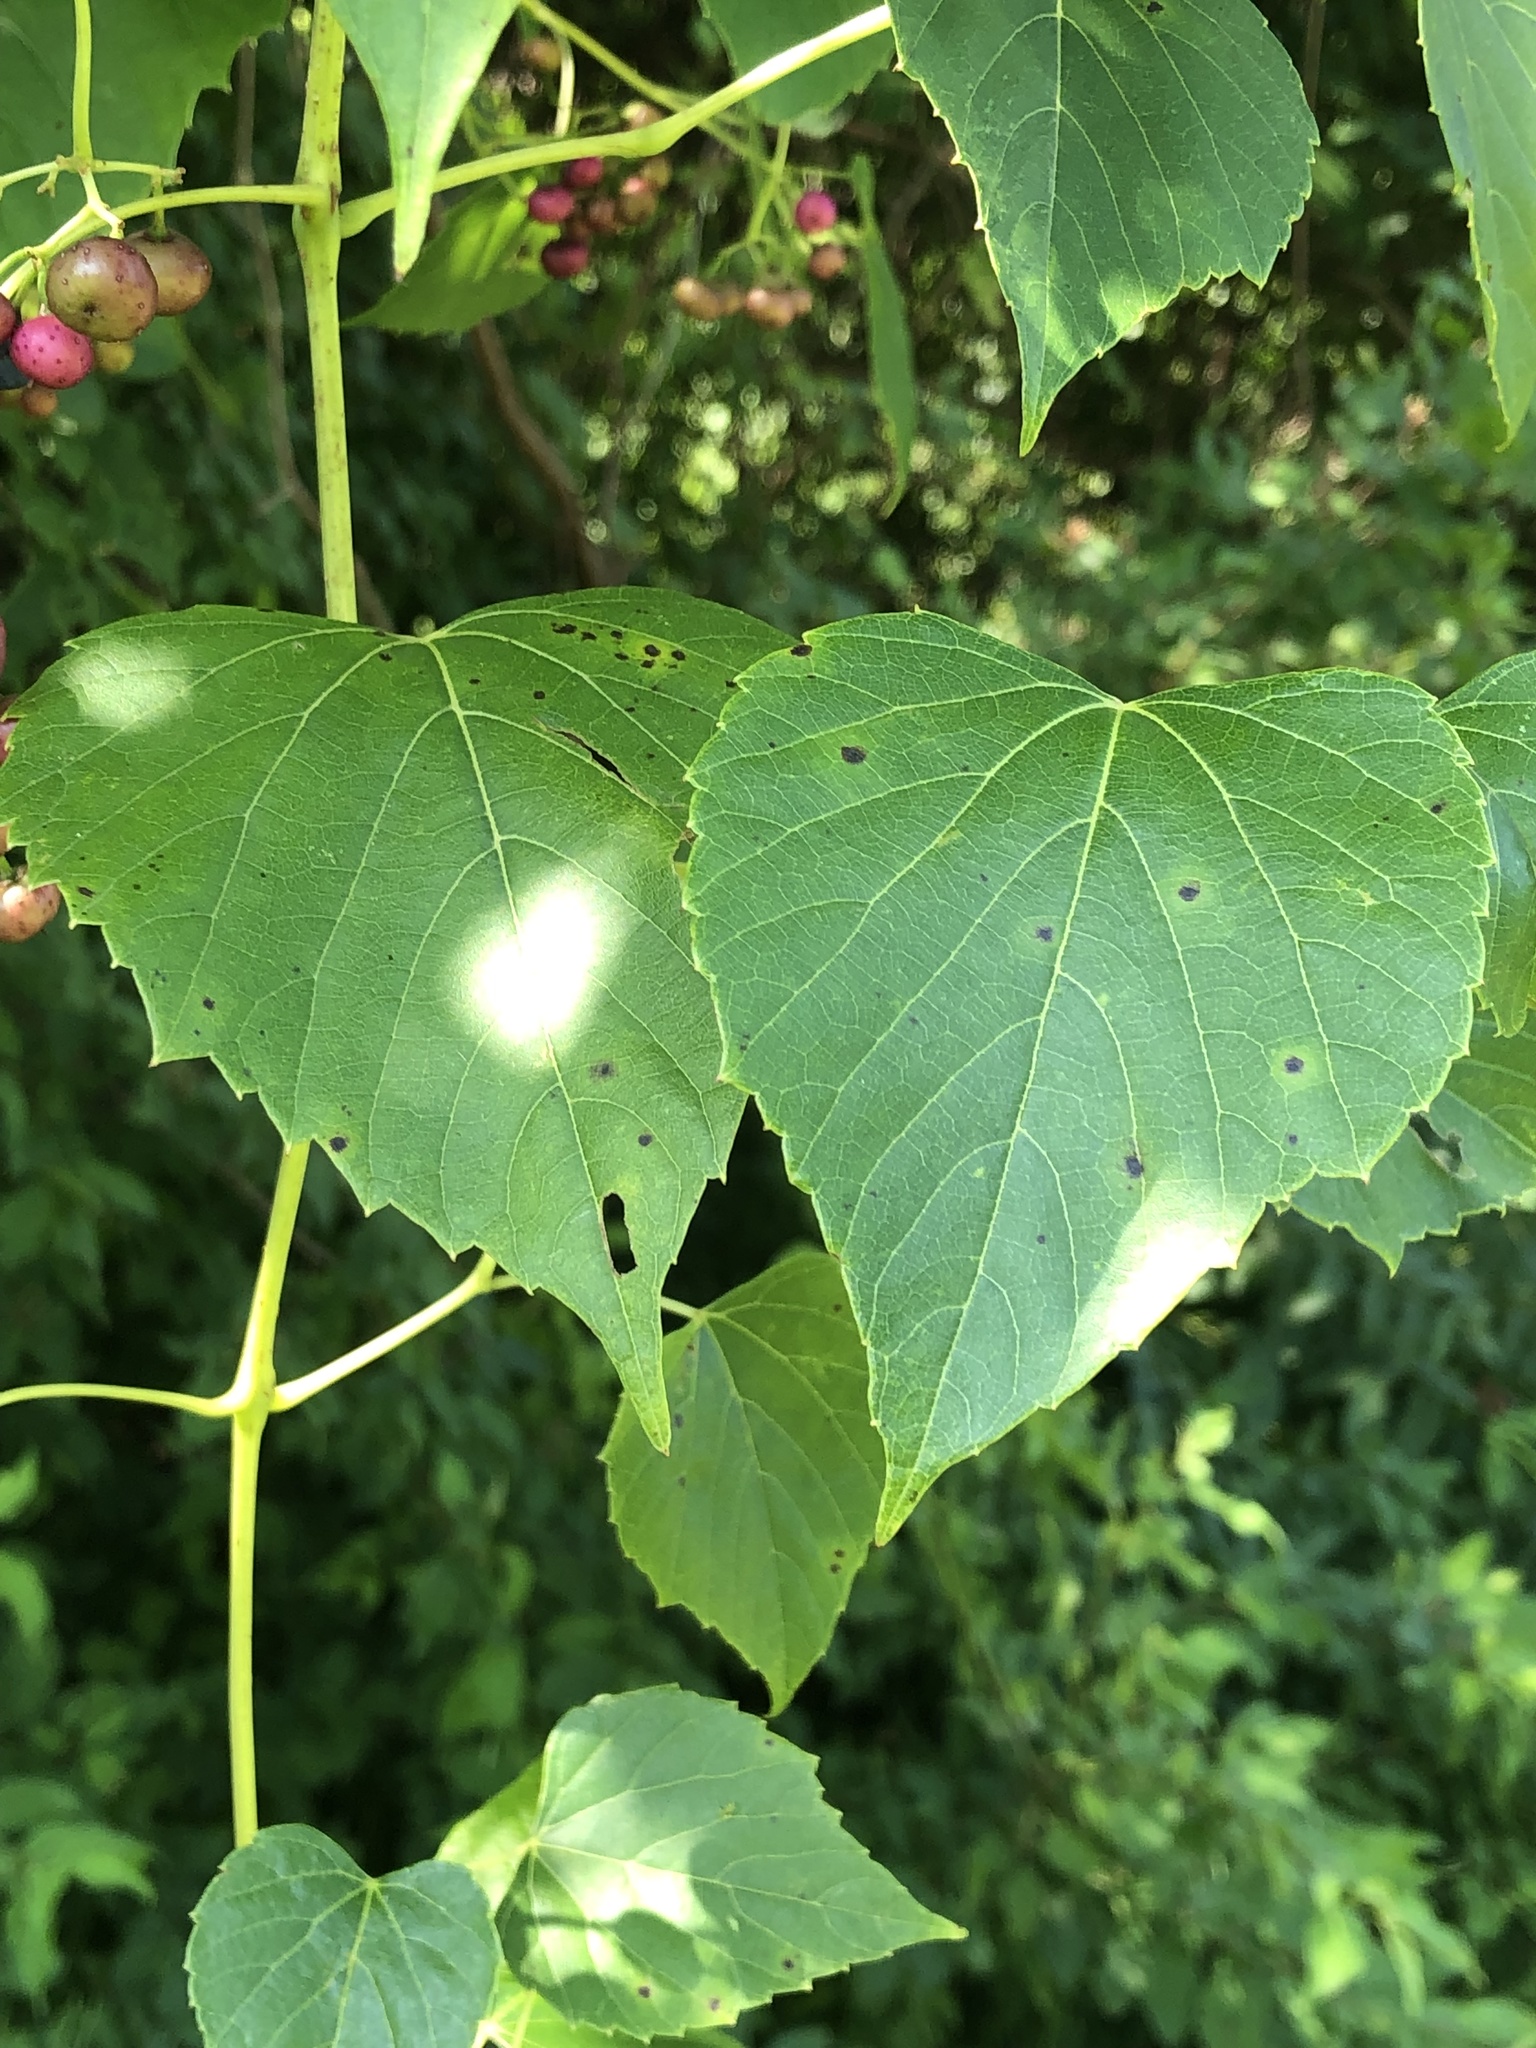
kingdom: Plantae
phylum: Tracheophyta
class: Magnoliopsida
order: Vitales
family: Vitaceae
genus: Ampelopsis
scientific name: Ampelopsis cordata
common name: Heart-leaf ampelopsis
